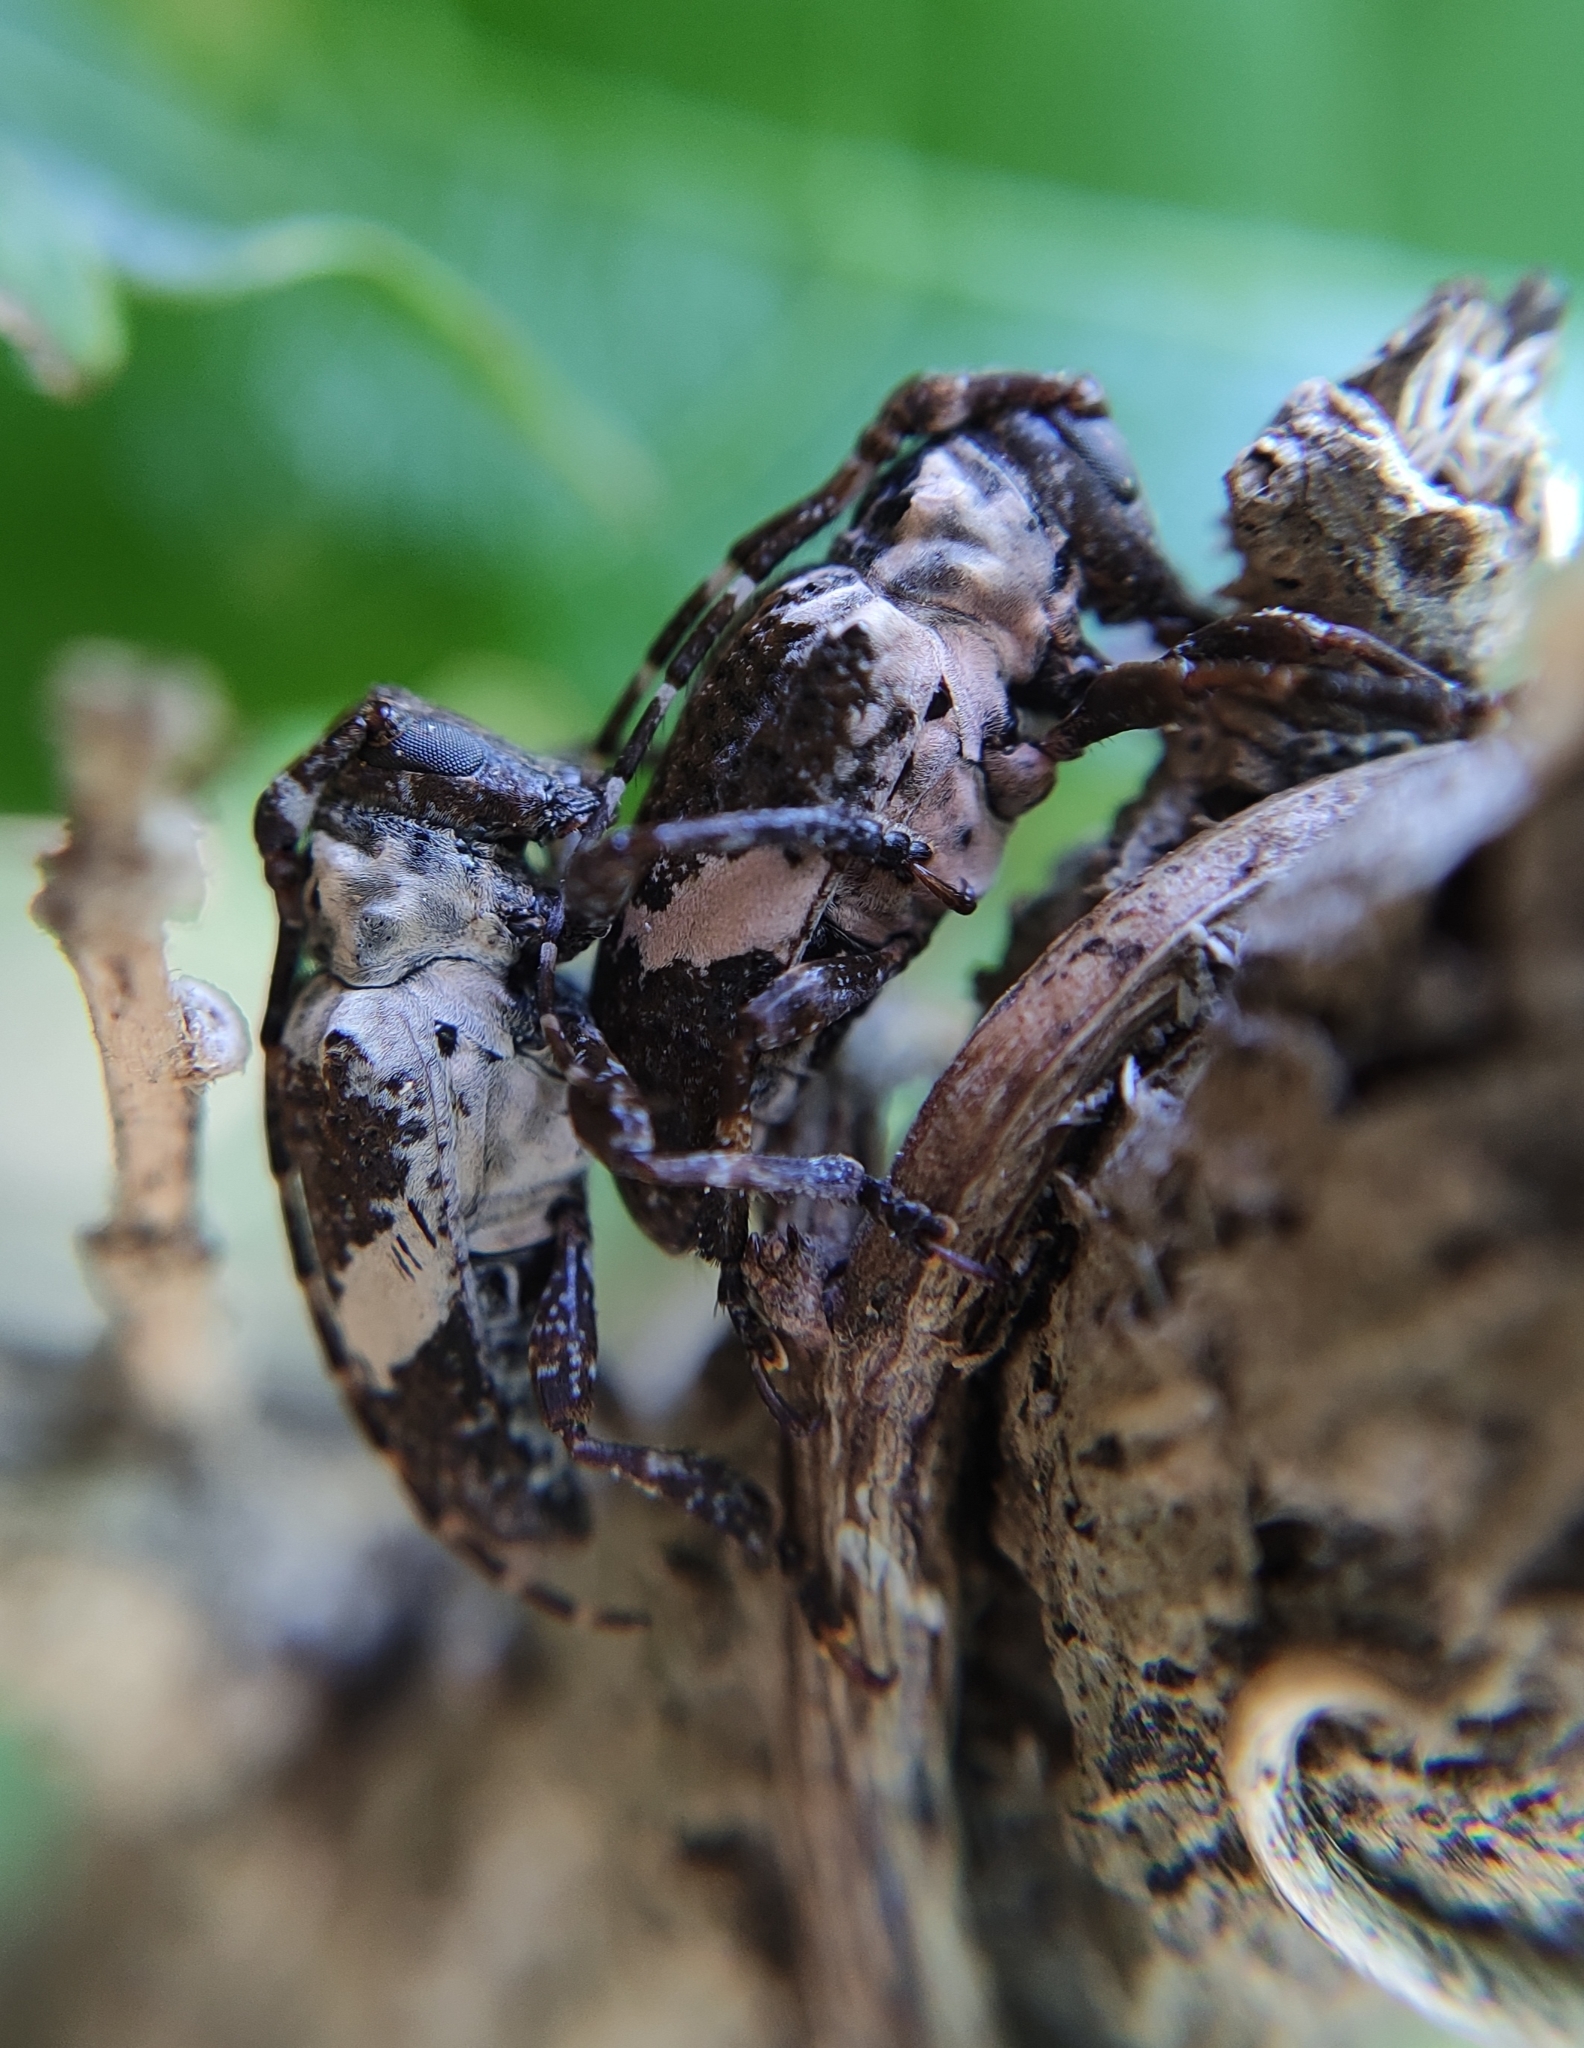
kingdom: Animalia
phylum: Arthropoda
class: Insecta
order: Coleoptera
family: Cerambycidae
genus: Cipriscola
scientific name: Cipriscola fasciata
